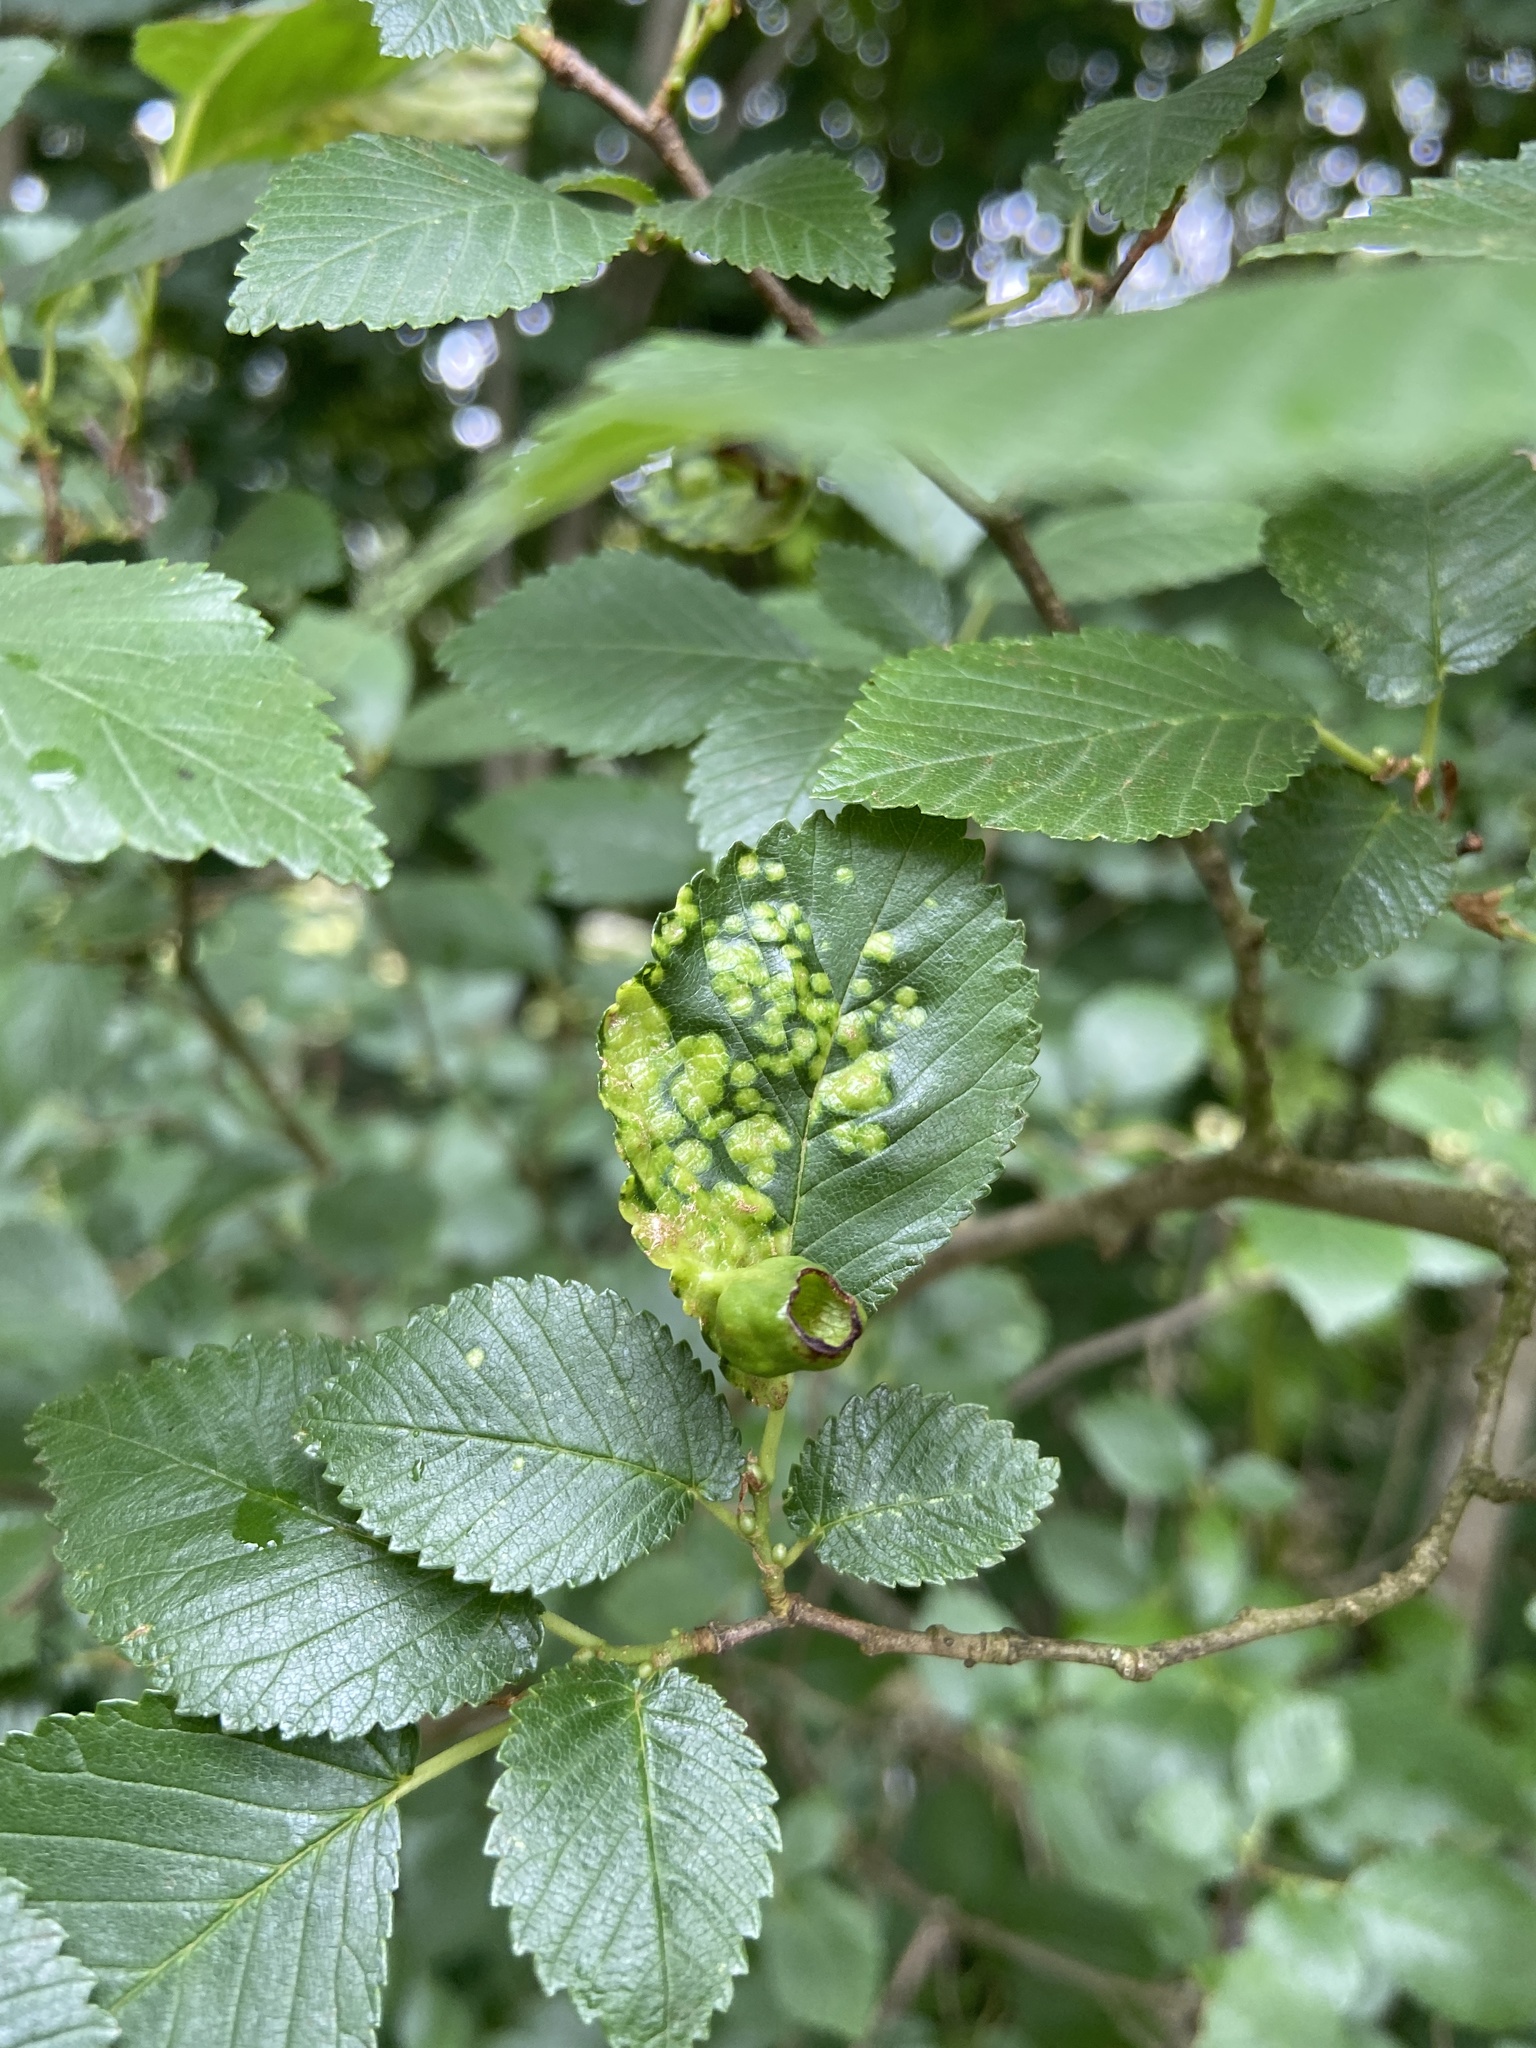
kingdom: Animalia
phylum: Arthropoda
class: Insecta
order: Hemiptera
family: Aphididae
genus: Tetraneura
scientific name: Tetraneura ulmi
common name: Aphid
